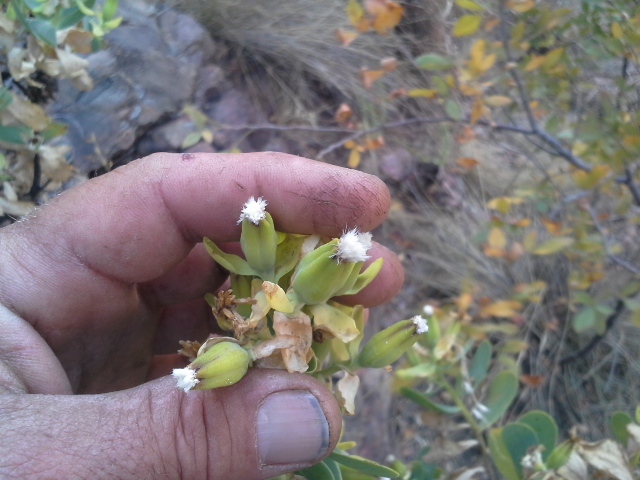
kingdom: Plantae
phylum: Tracheophyta
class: Magnoliopsida
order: Asterales
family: Asteraceae
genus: Lopholaena
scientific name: Lopholaena coriifolia
